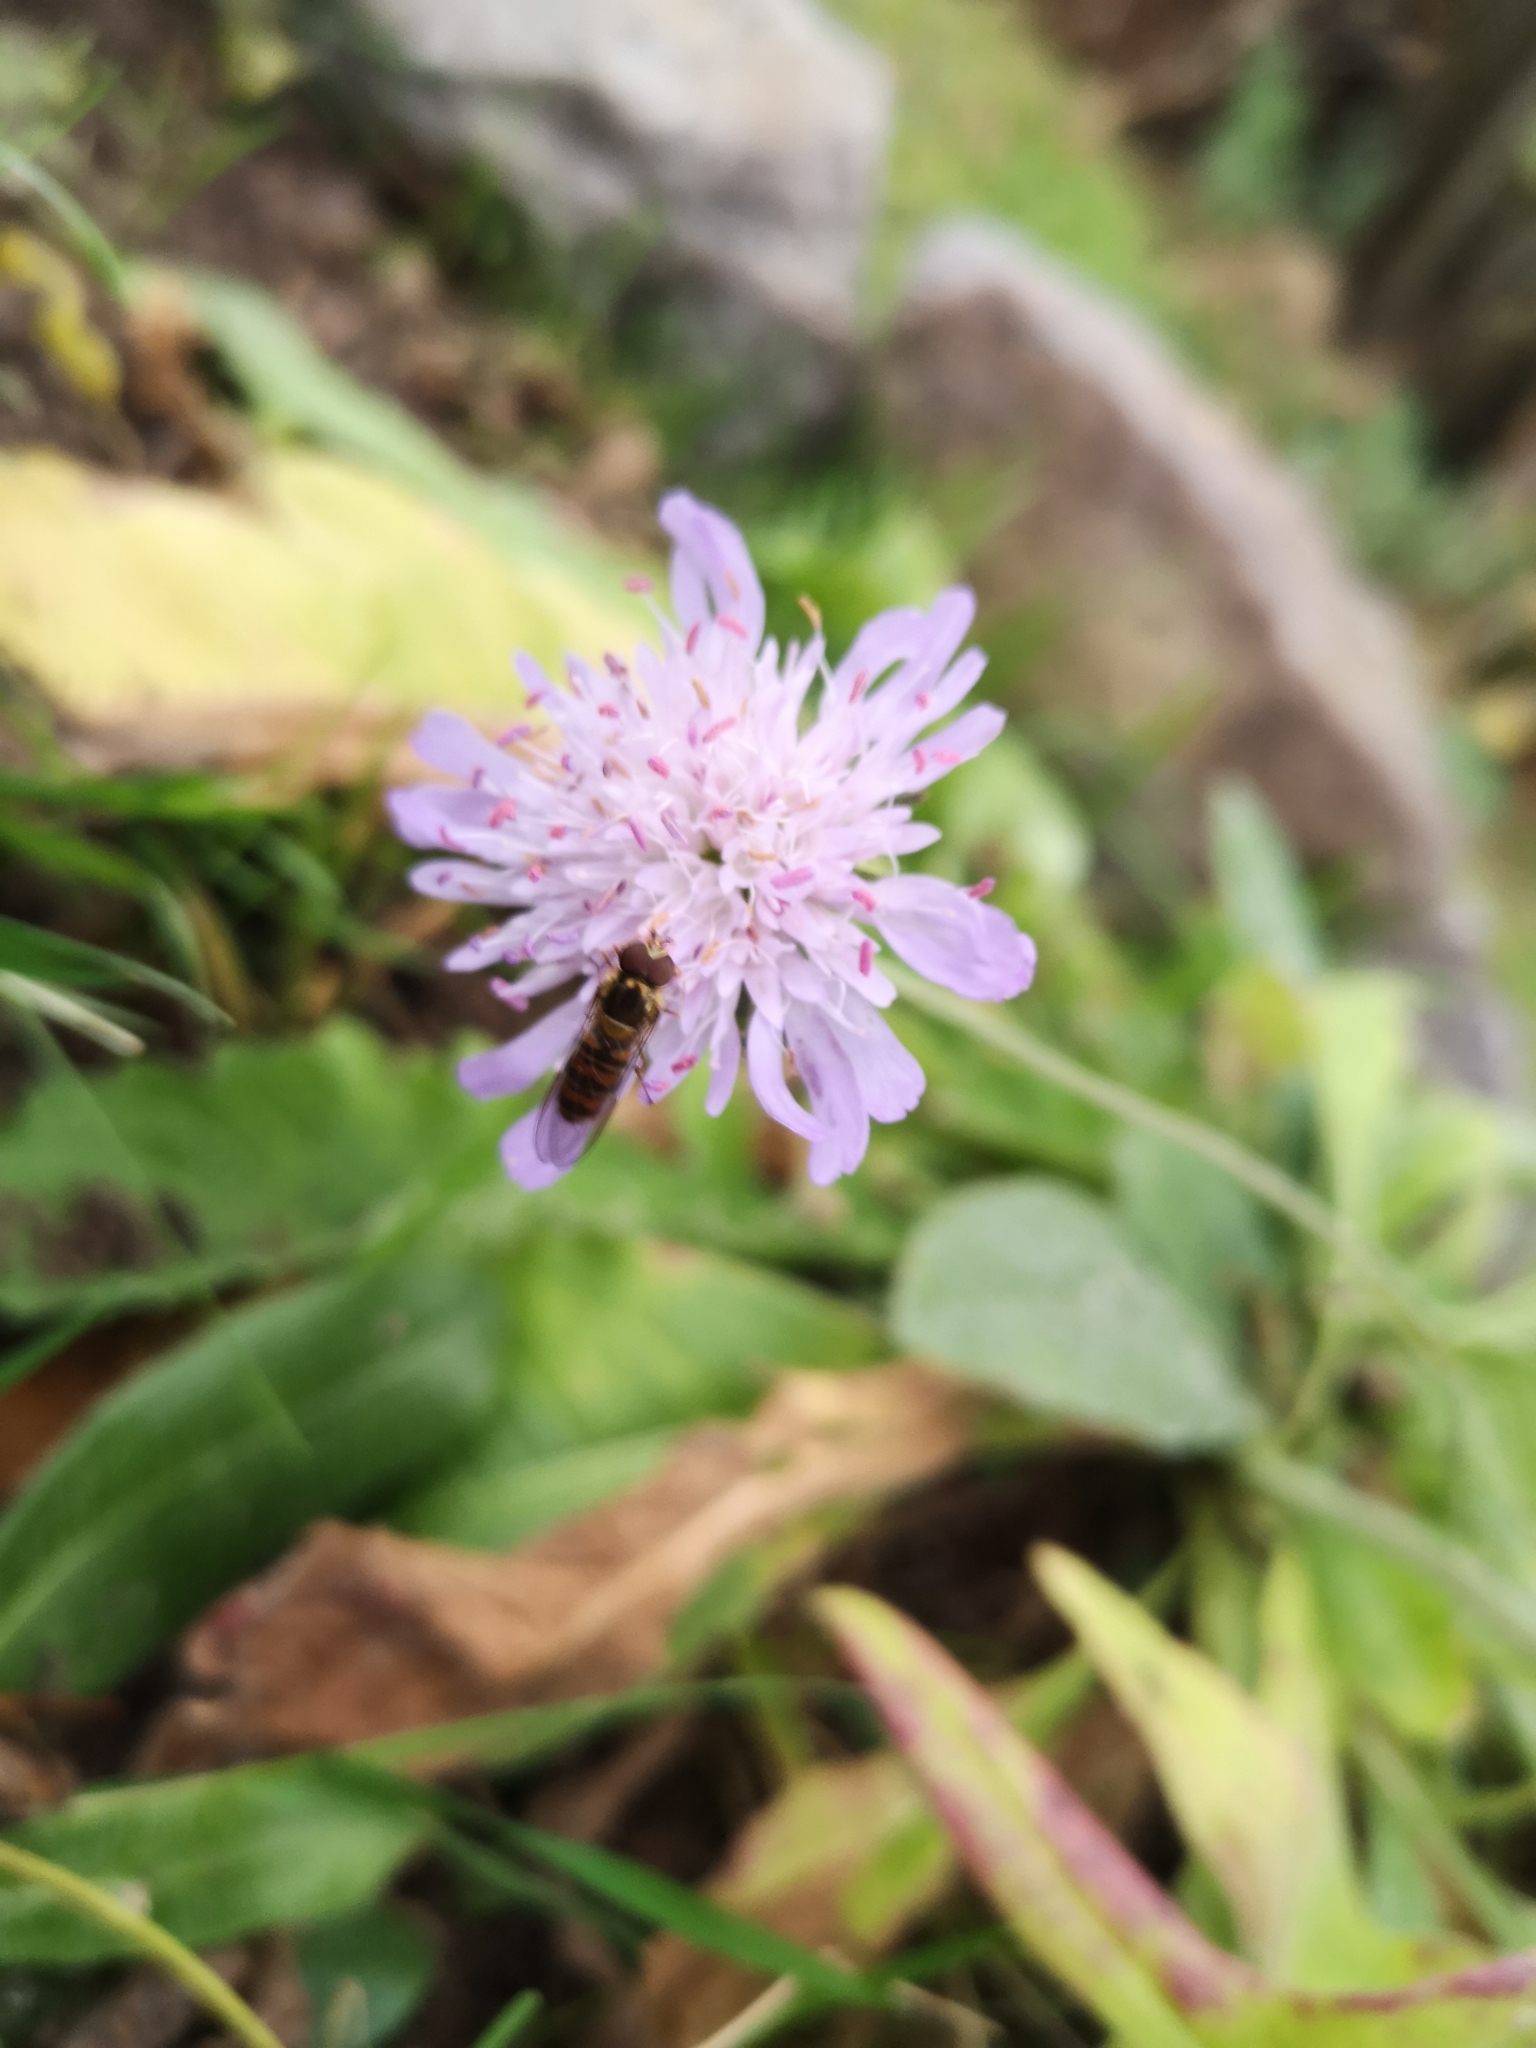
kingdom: Animalia
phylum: Arthropoda
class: Insecta
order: Diptera
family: Syrphidae
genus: Episyrphus
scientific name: Episyrphus balteatus
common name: Marmalade hoverfly
